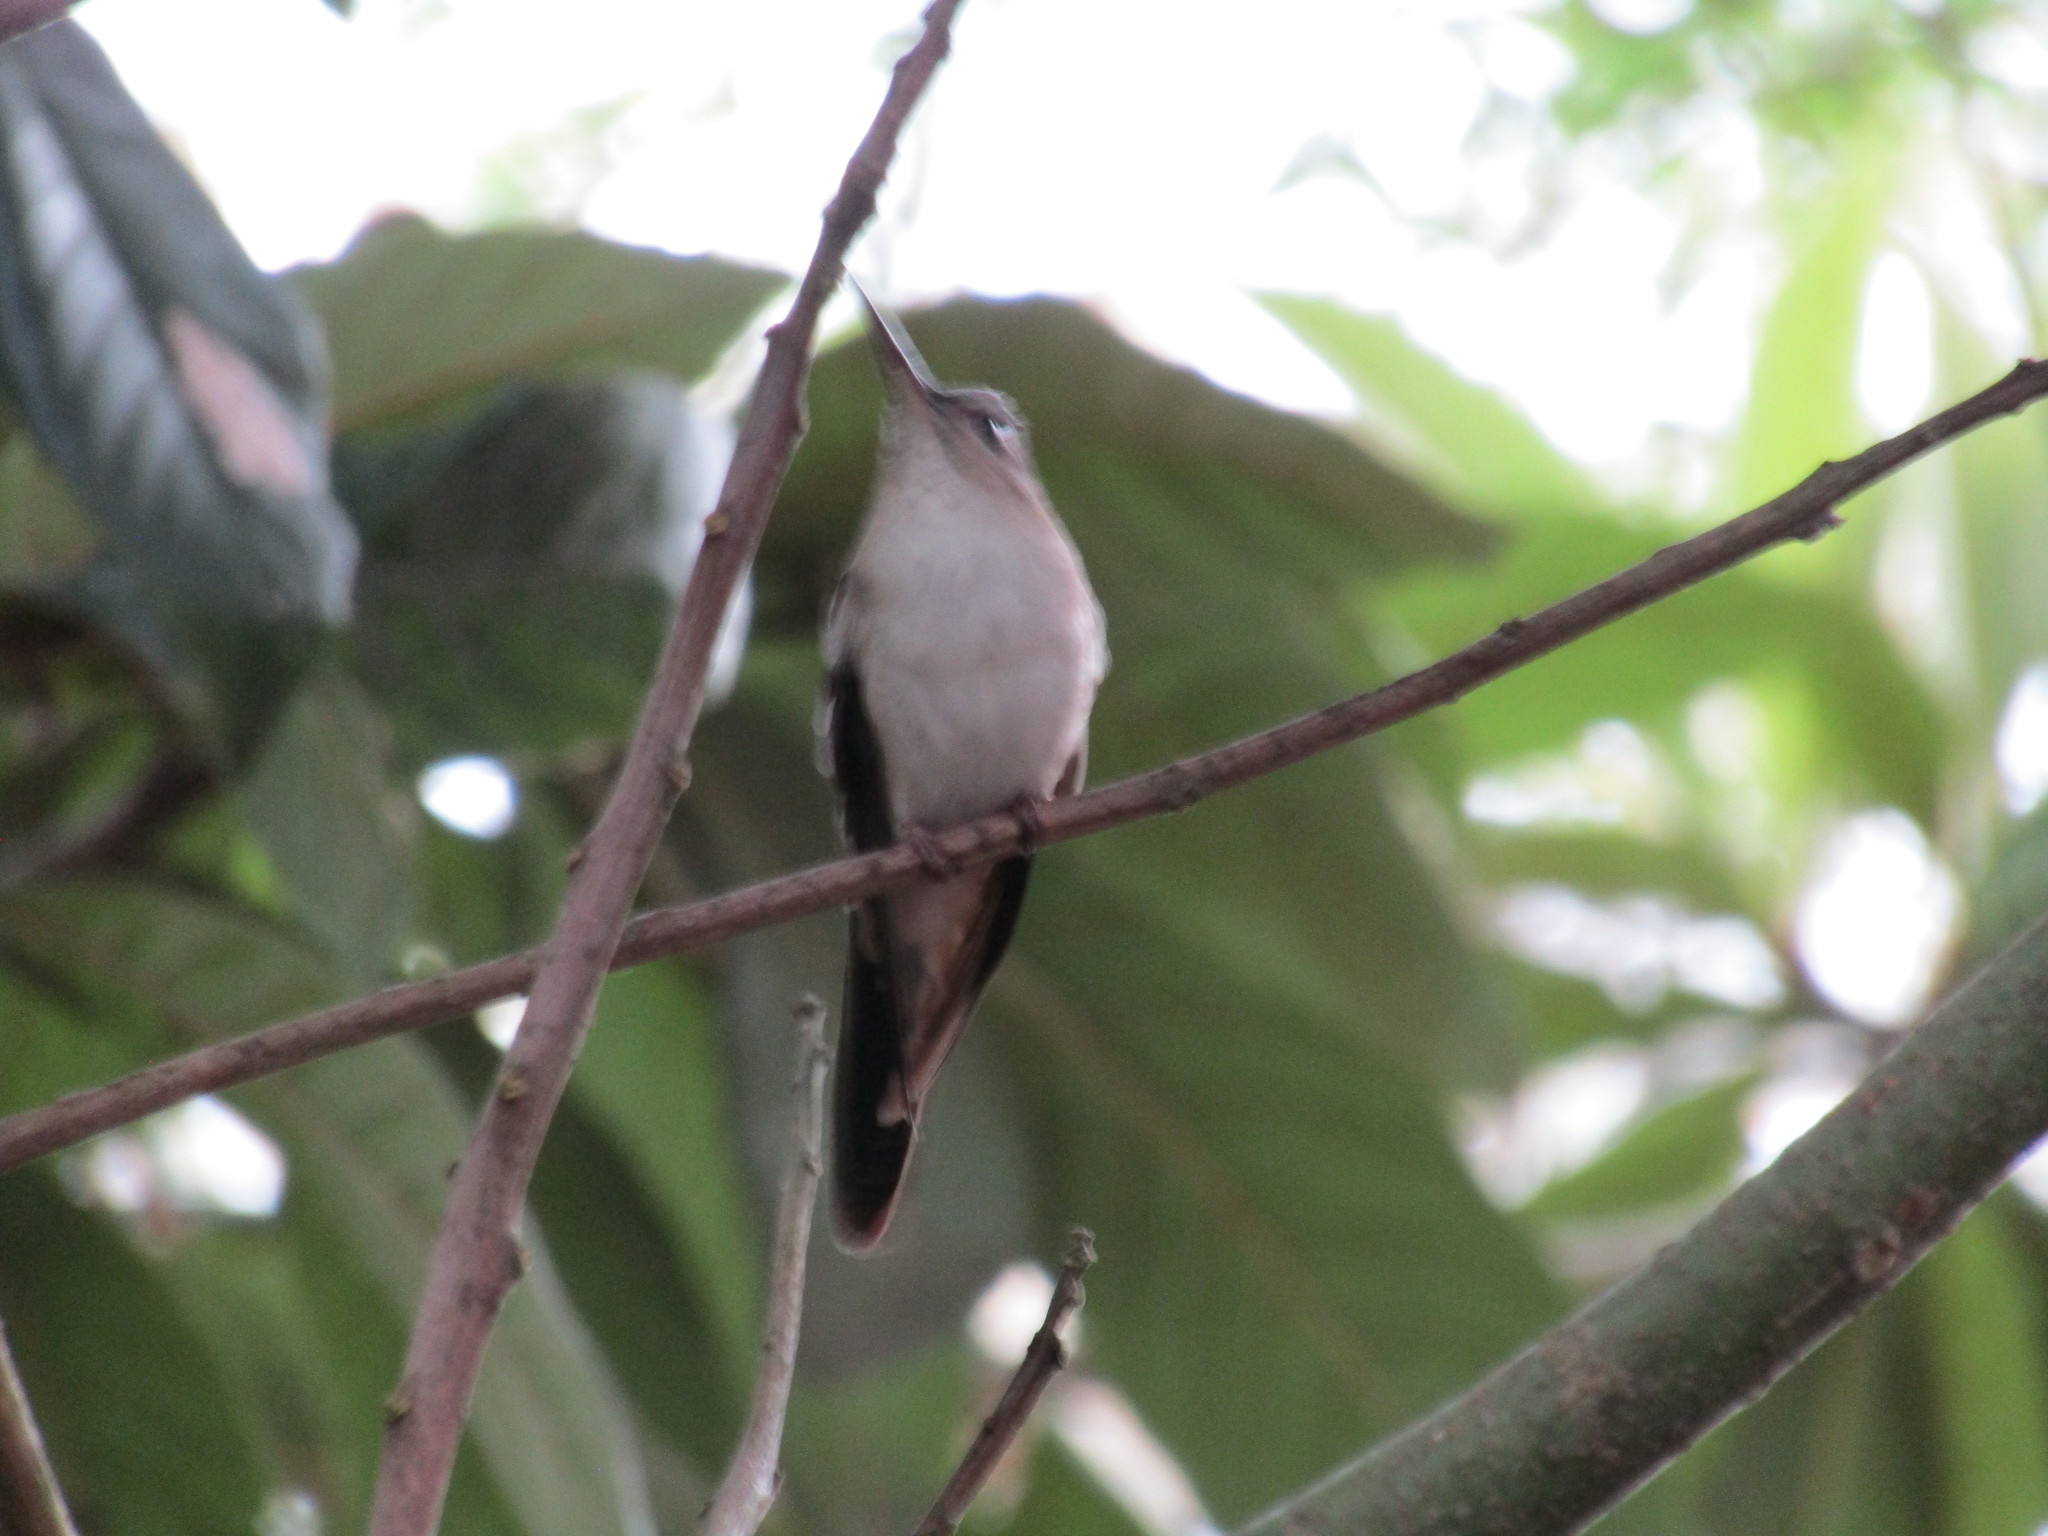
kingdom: Animalia
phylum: Chordata
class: Aves
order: Apodiformes
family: Trochilidae
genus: Pampa
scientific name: Pampa curvipennis
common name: Curve-winged sabrewing
